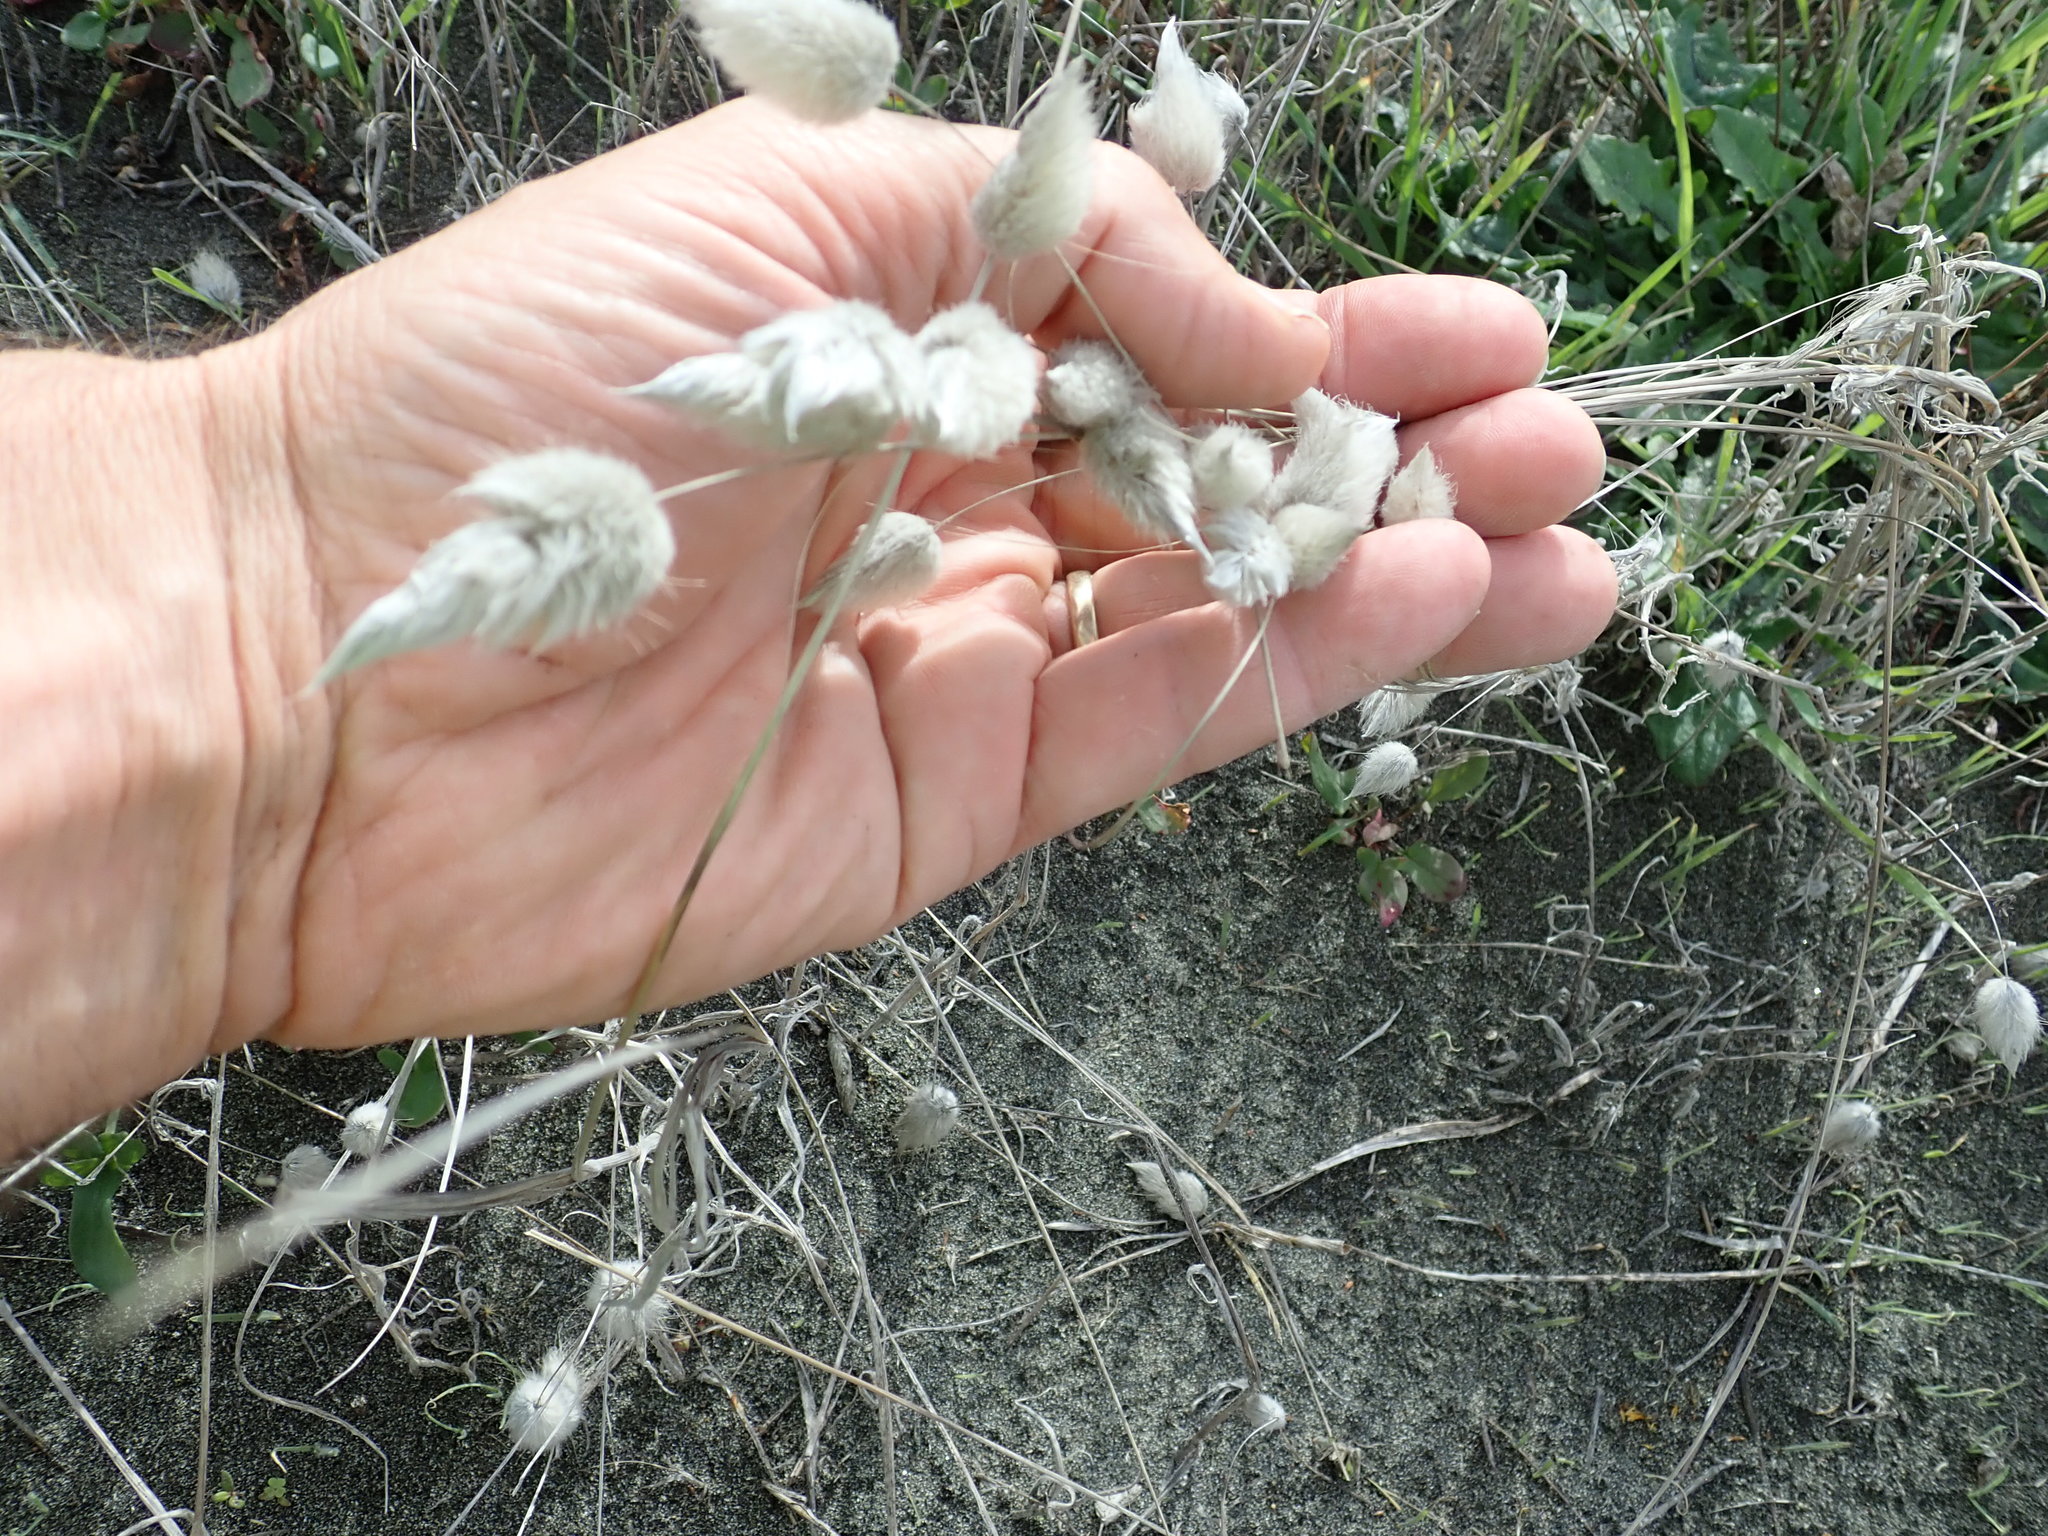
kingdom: Plantae
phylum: Tracheophyta
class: Liliopsida
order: Poales
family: Poaceae
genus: Lagurus
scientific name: Lagurus ovatus
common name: Hare's-tail
